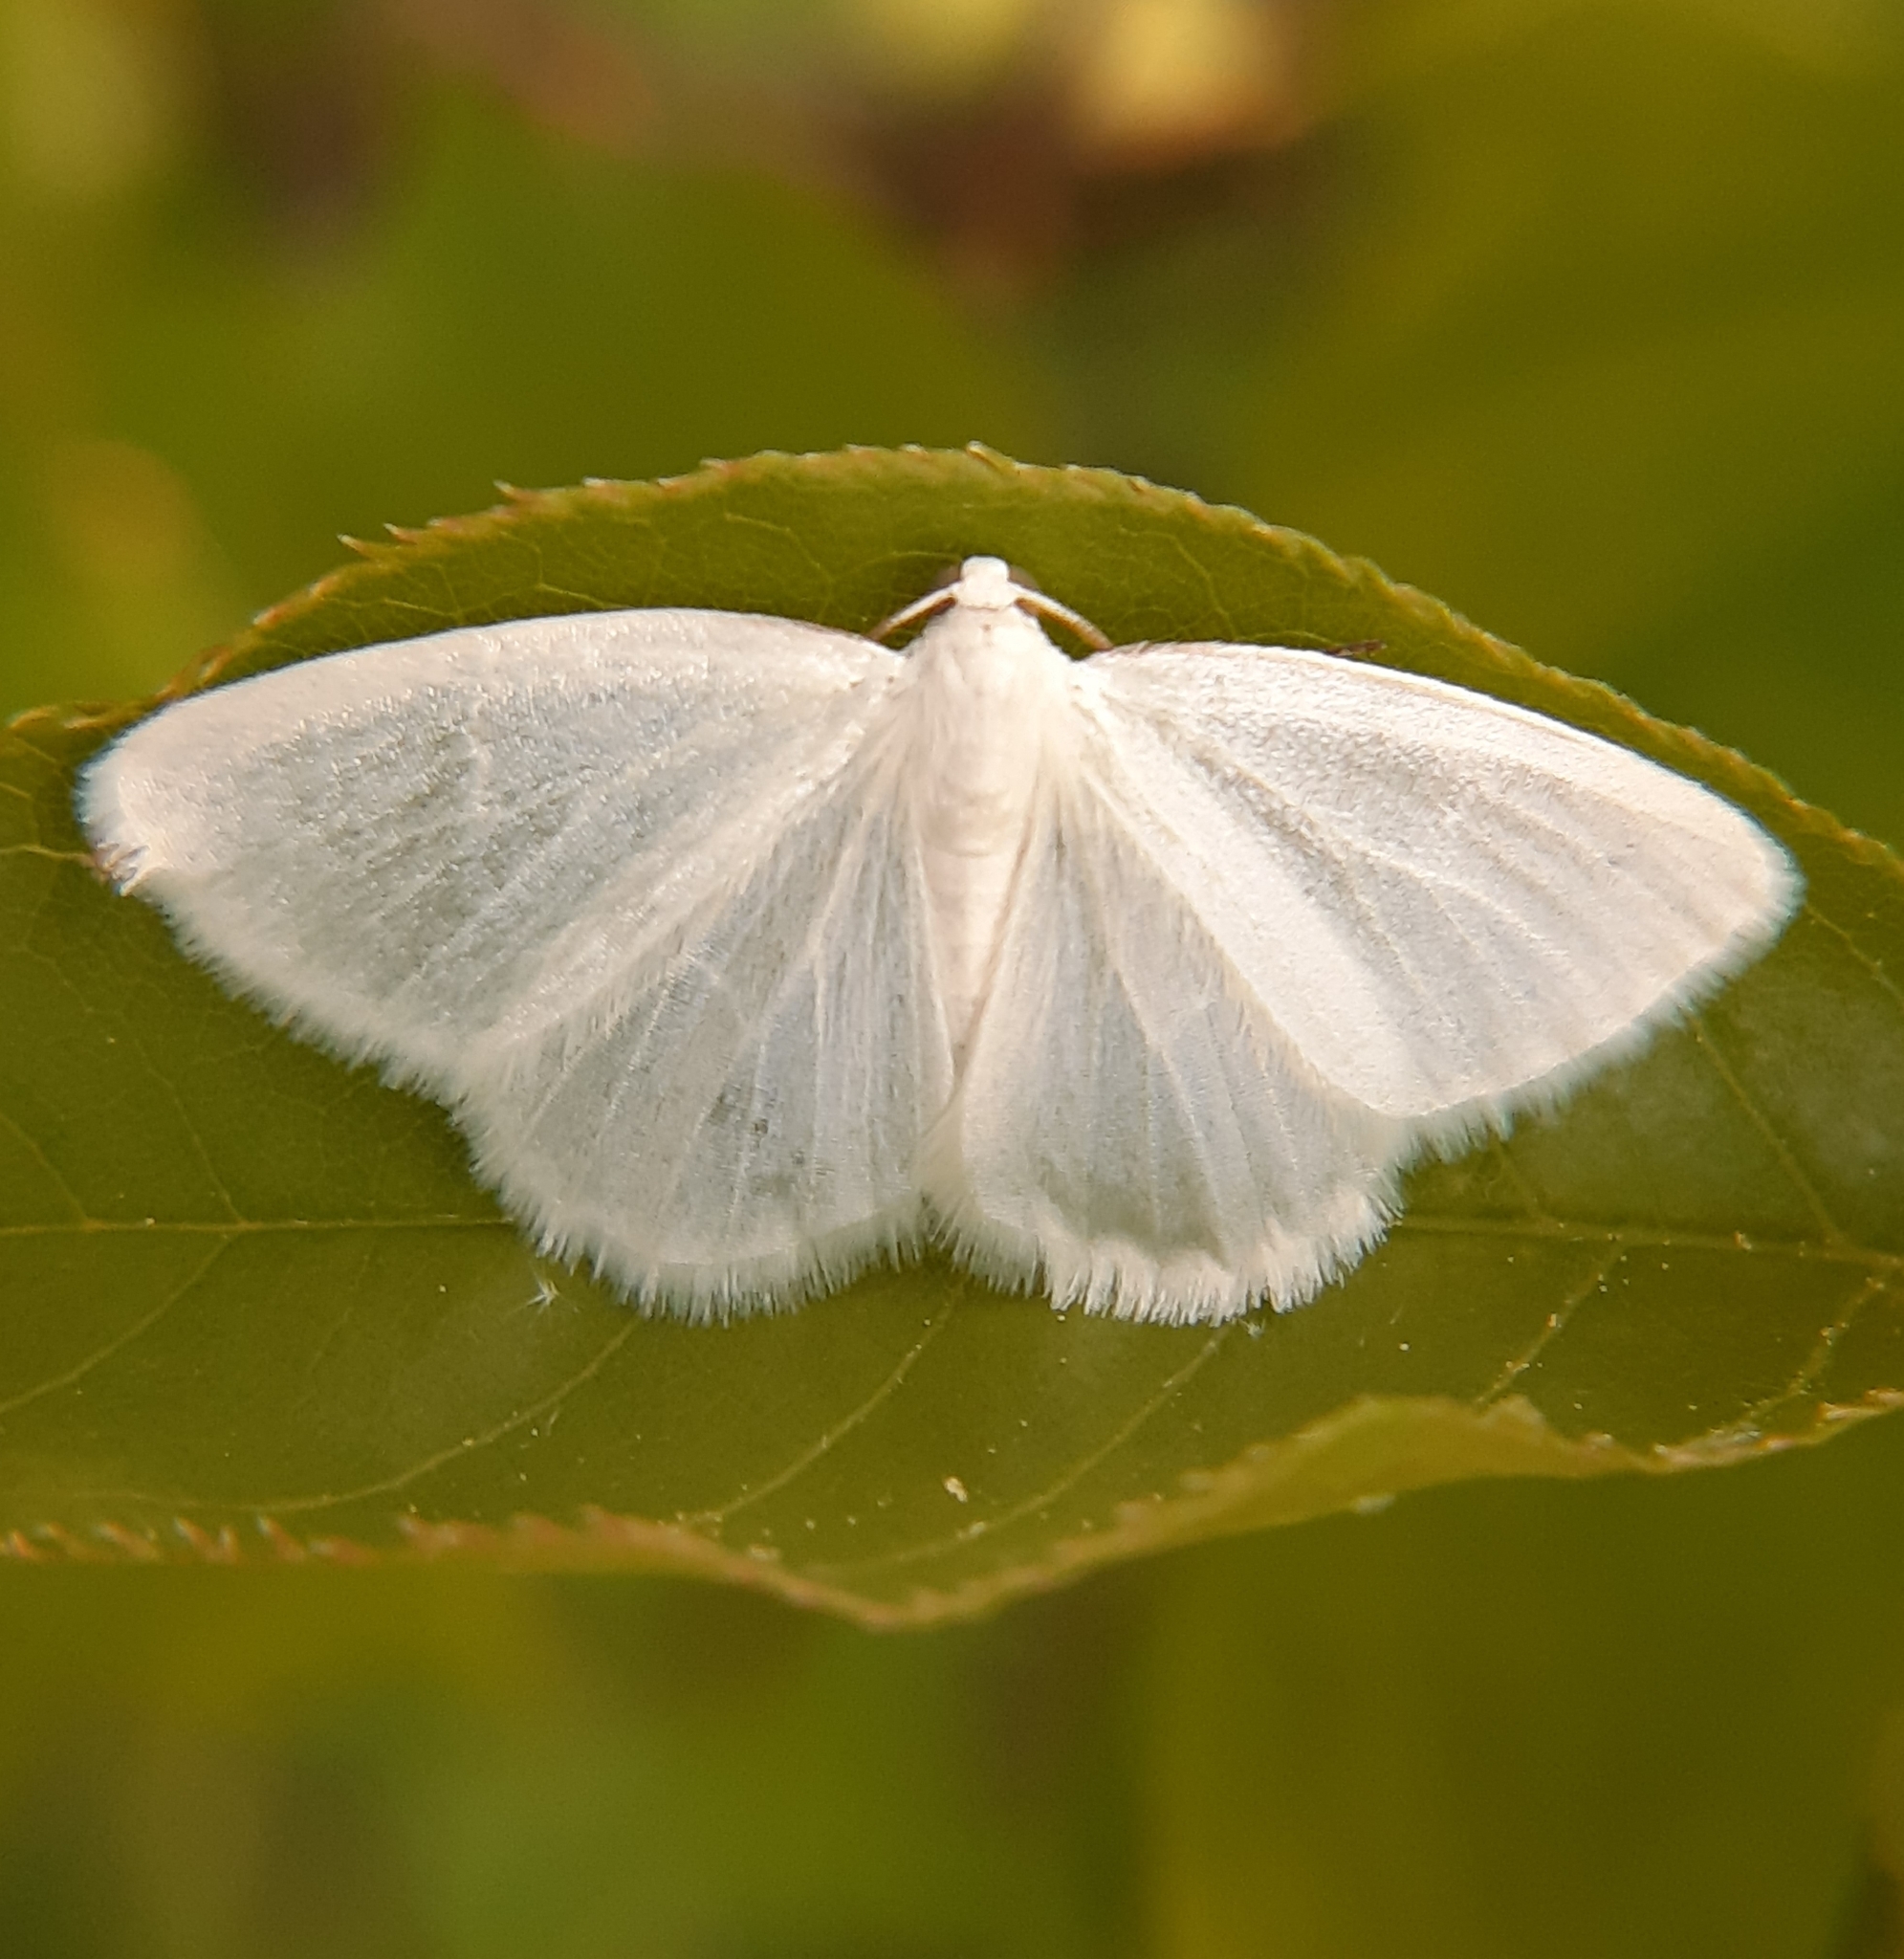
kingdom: Animalia
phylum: Arthropoda
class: Insecta
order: Lepidoptera
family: Geometridae
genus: Lomographa
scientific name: Lomographa vestaliata
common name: White spring moth
